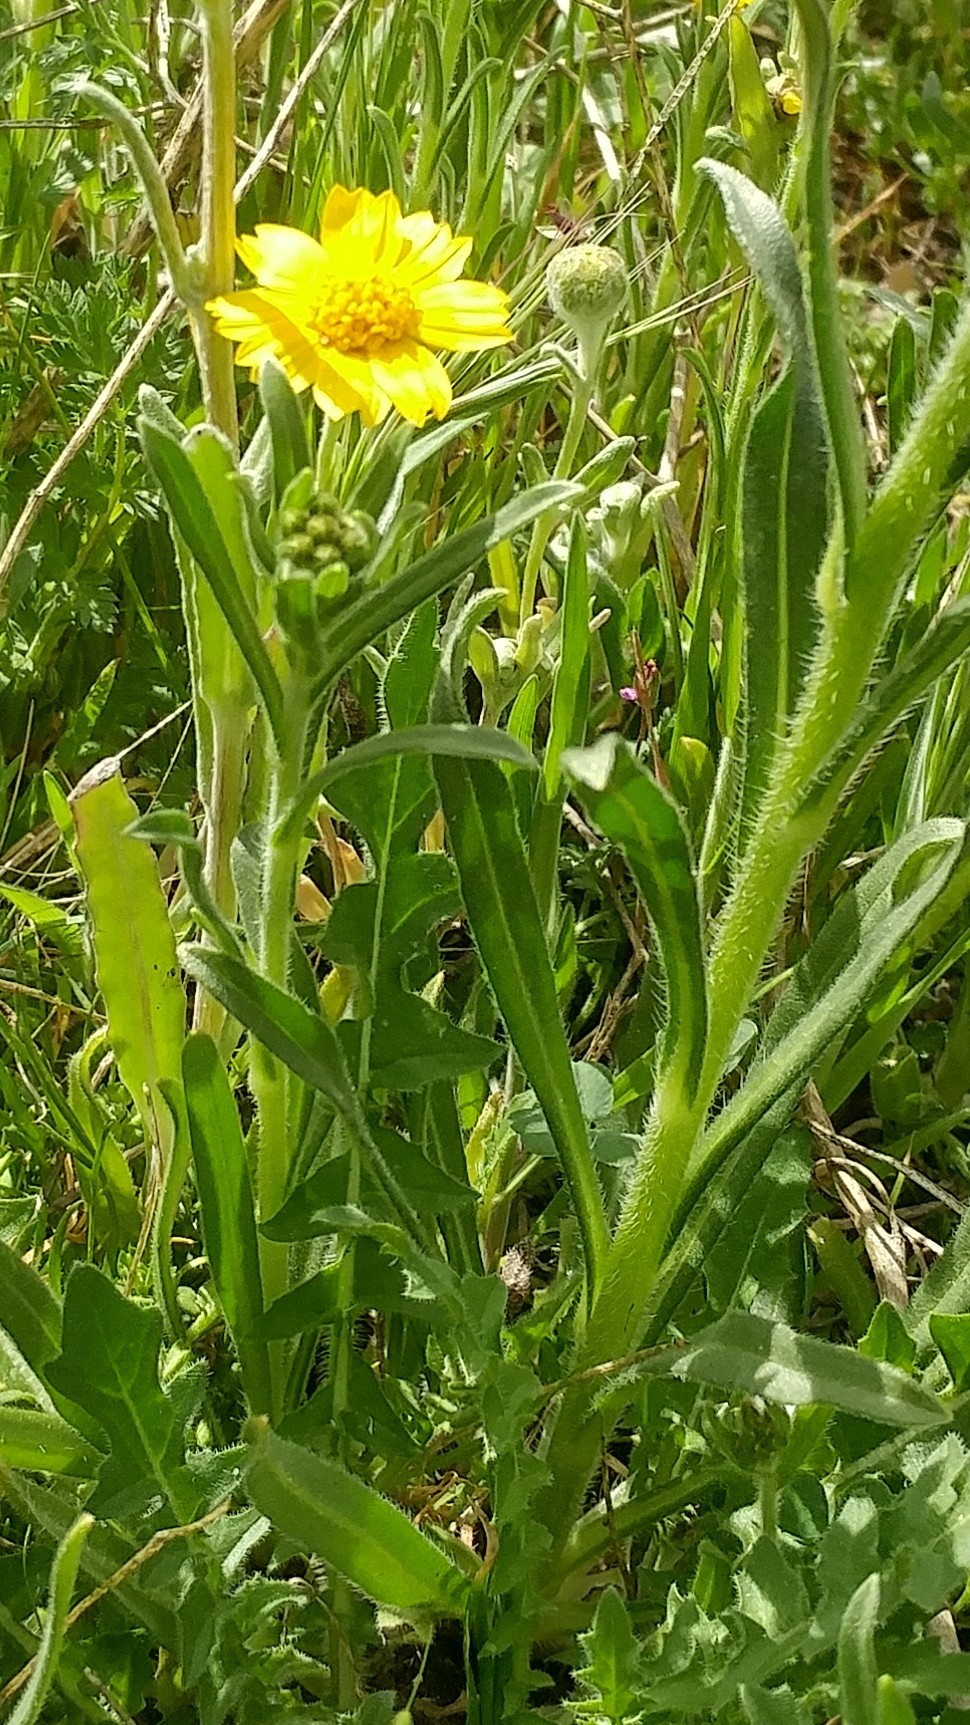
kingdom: Plantae
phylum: Tracheophyta
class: Magnoliopsida
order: Asterales
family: Asteraceae
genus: Monolopia
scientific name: Monolopia lanceolata
